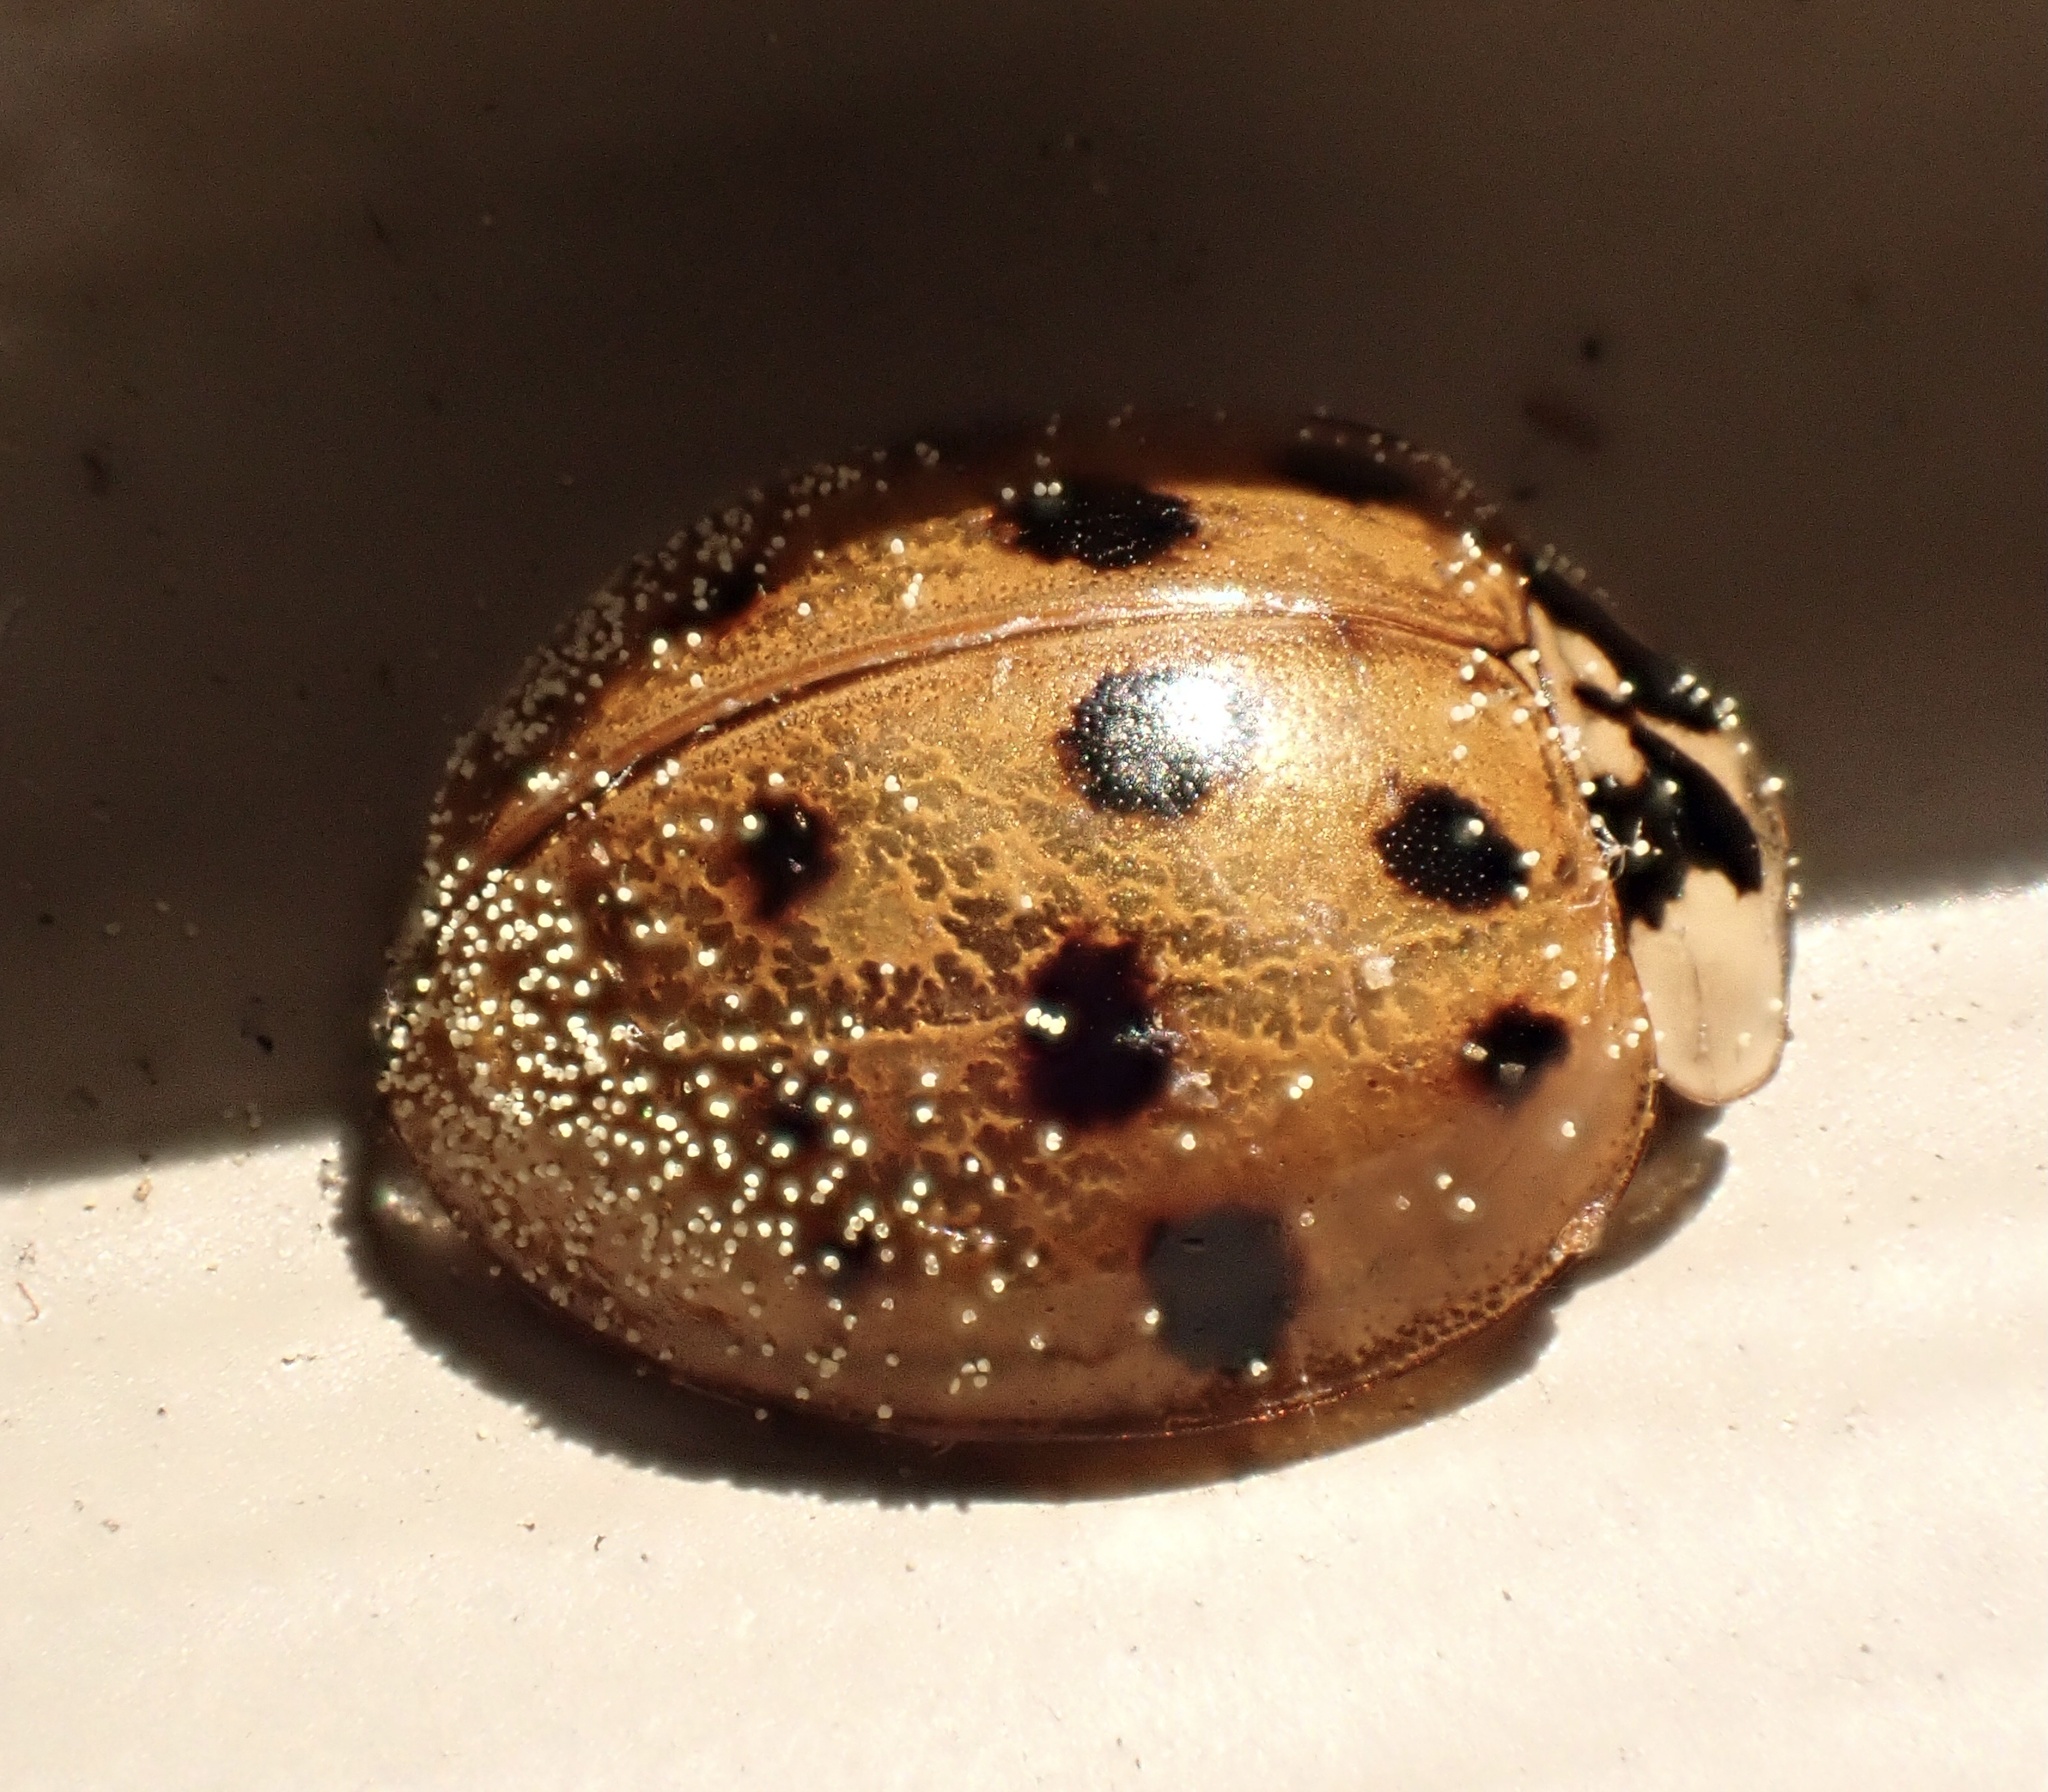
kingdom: Animalia
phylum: Arthropoda
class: Insecta
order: Coleoptera
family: Coccinellidae
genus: Harmonia
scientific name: Harmonia axyridis
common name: Harlequin ladybird
